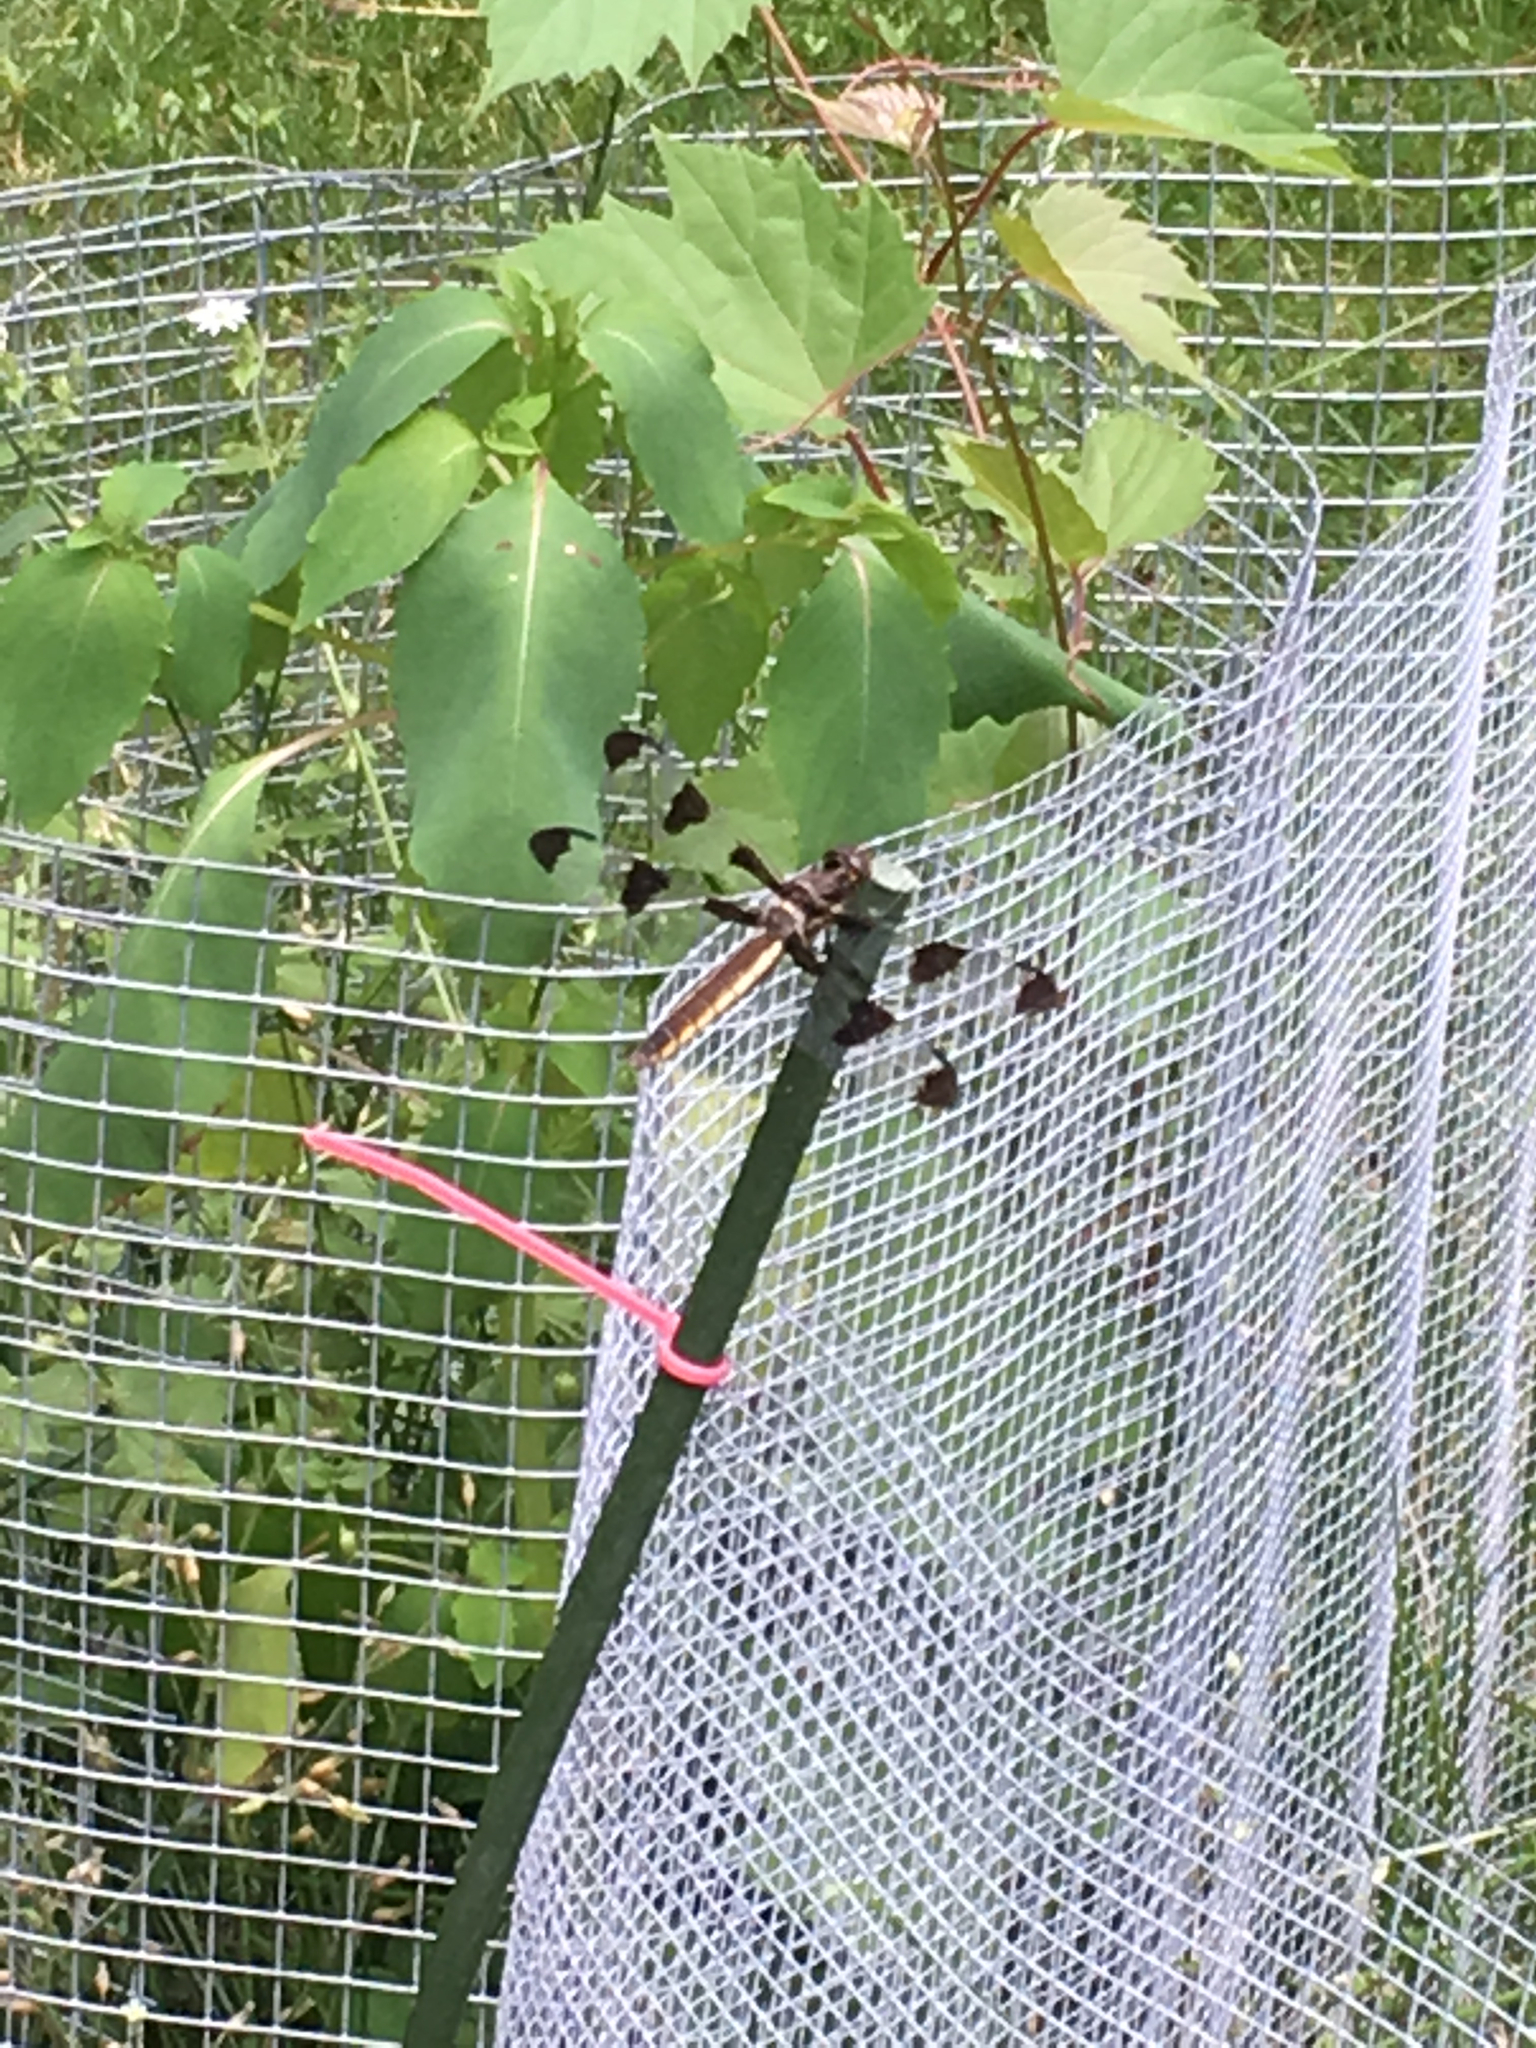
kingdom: Animalia
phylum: Arthropoda
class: Insecta
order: Odonata
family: Libellulidae
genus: Libellula
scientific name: Libellula pulchella
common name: Twelve-spotted skimmer
